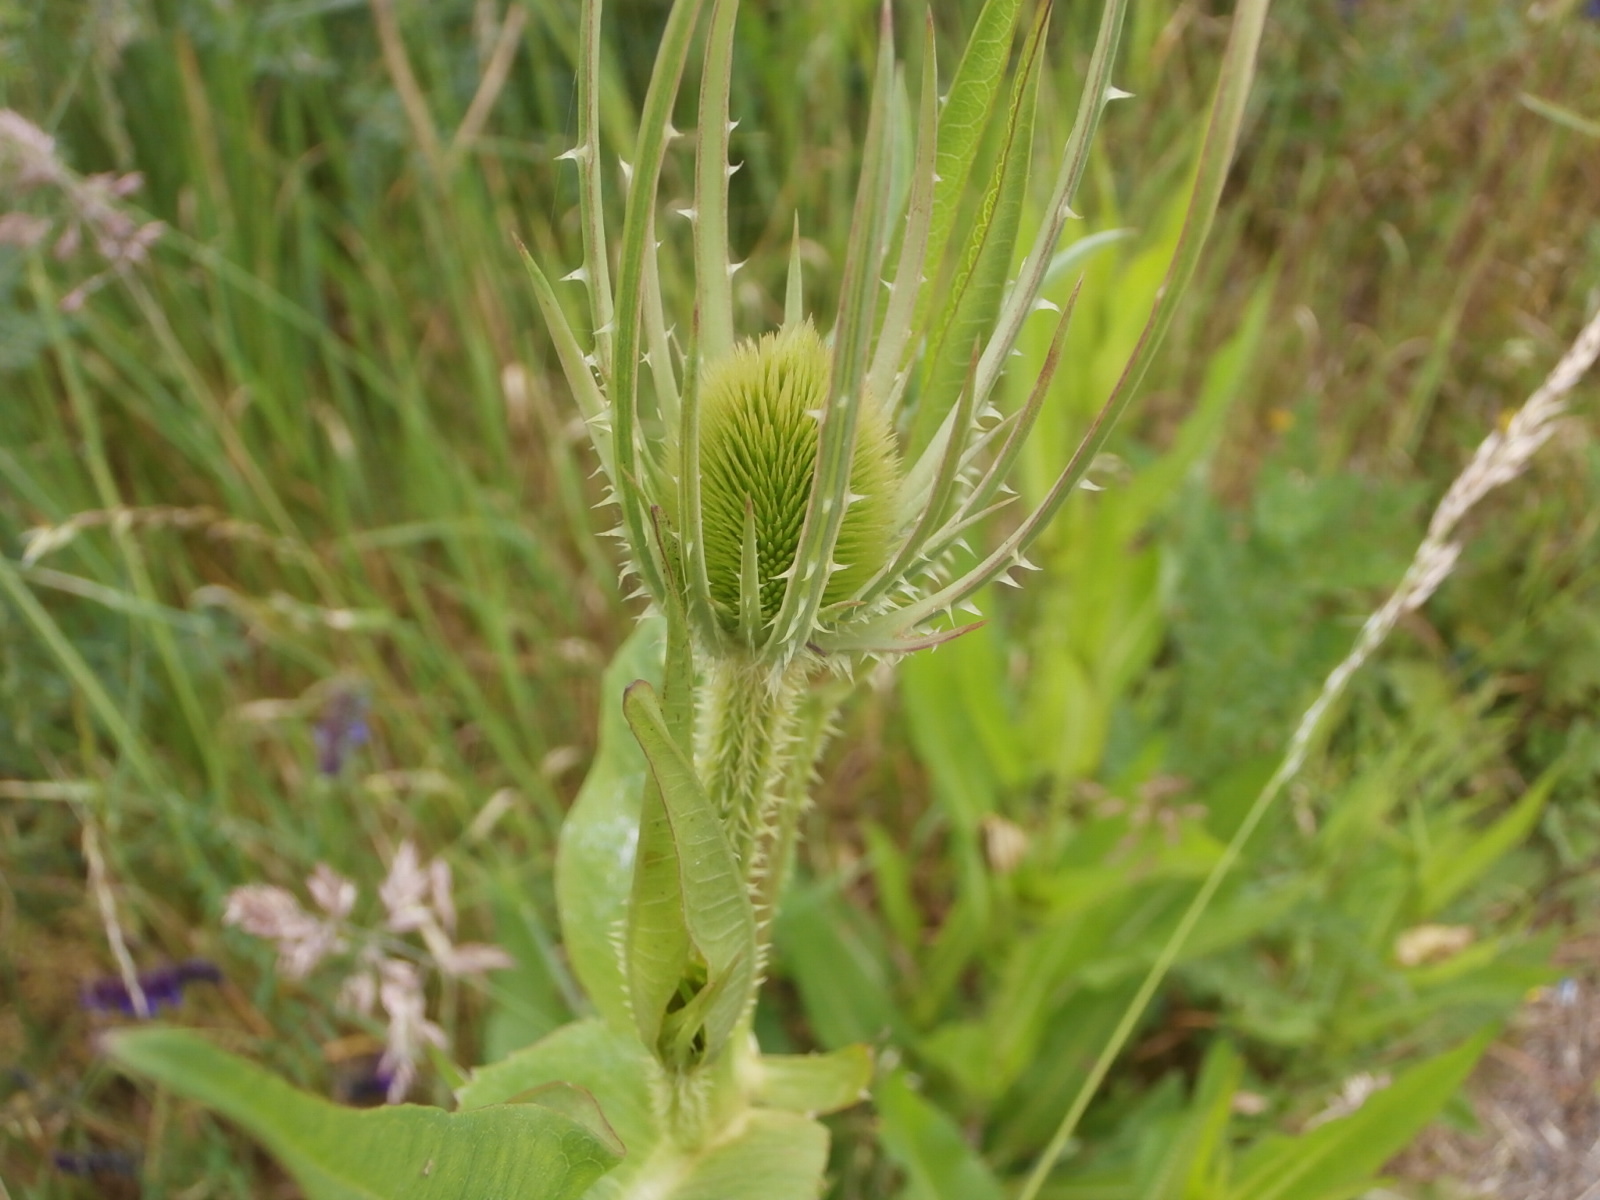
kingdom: Plantae
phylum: Tracheophyta
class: Magnoliopsida
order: Dipsacales
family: Caprifoliaceae
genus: Dipsacus
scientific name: Dipsacus fullonum
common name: Teasel
